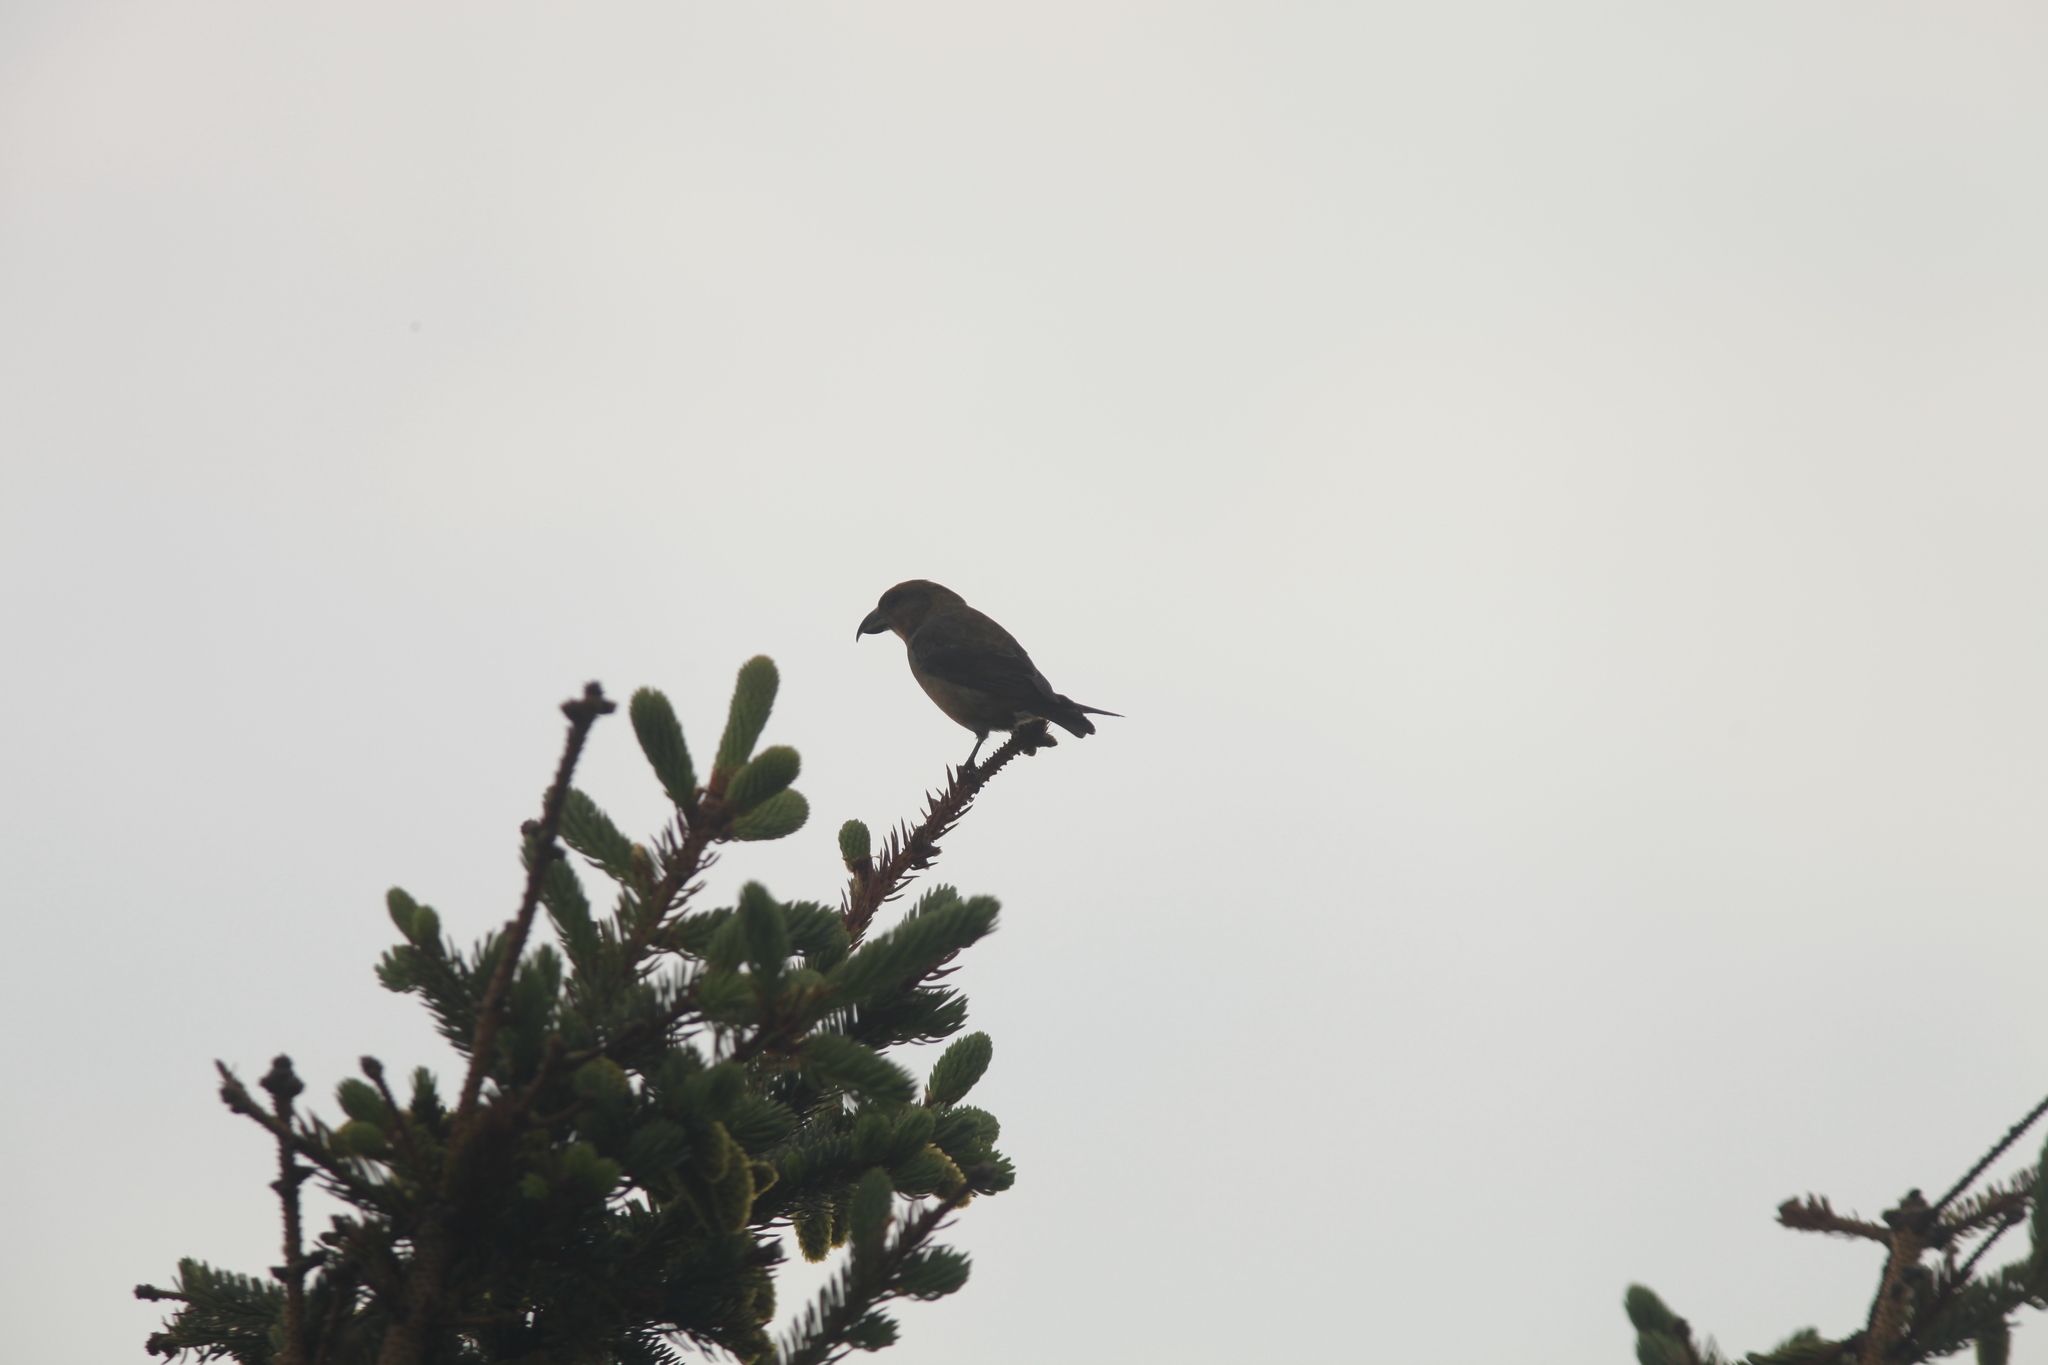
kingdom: Animalia
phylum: Chordata
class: Aves
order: Passeriformes
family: Fringillidae
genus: Loxia
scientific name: Loxia curvirostra
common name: Red crossbill
